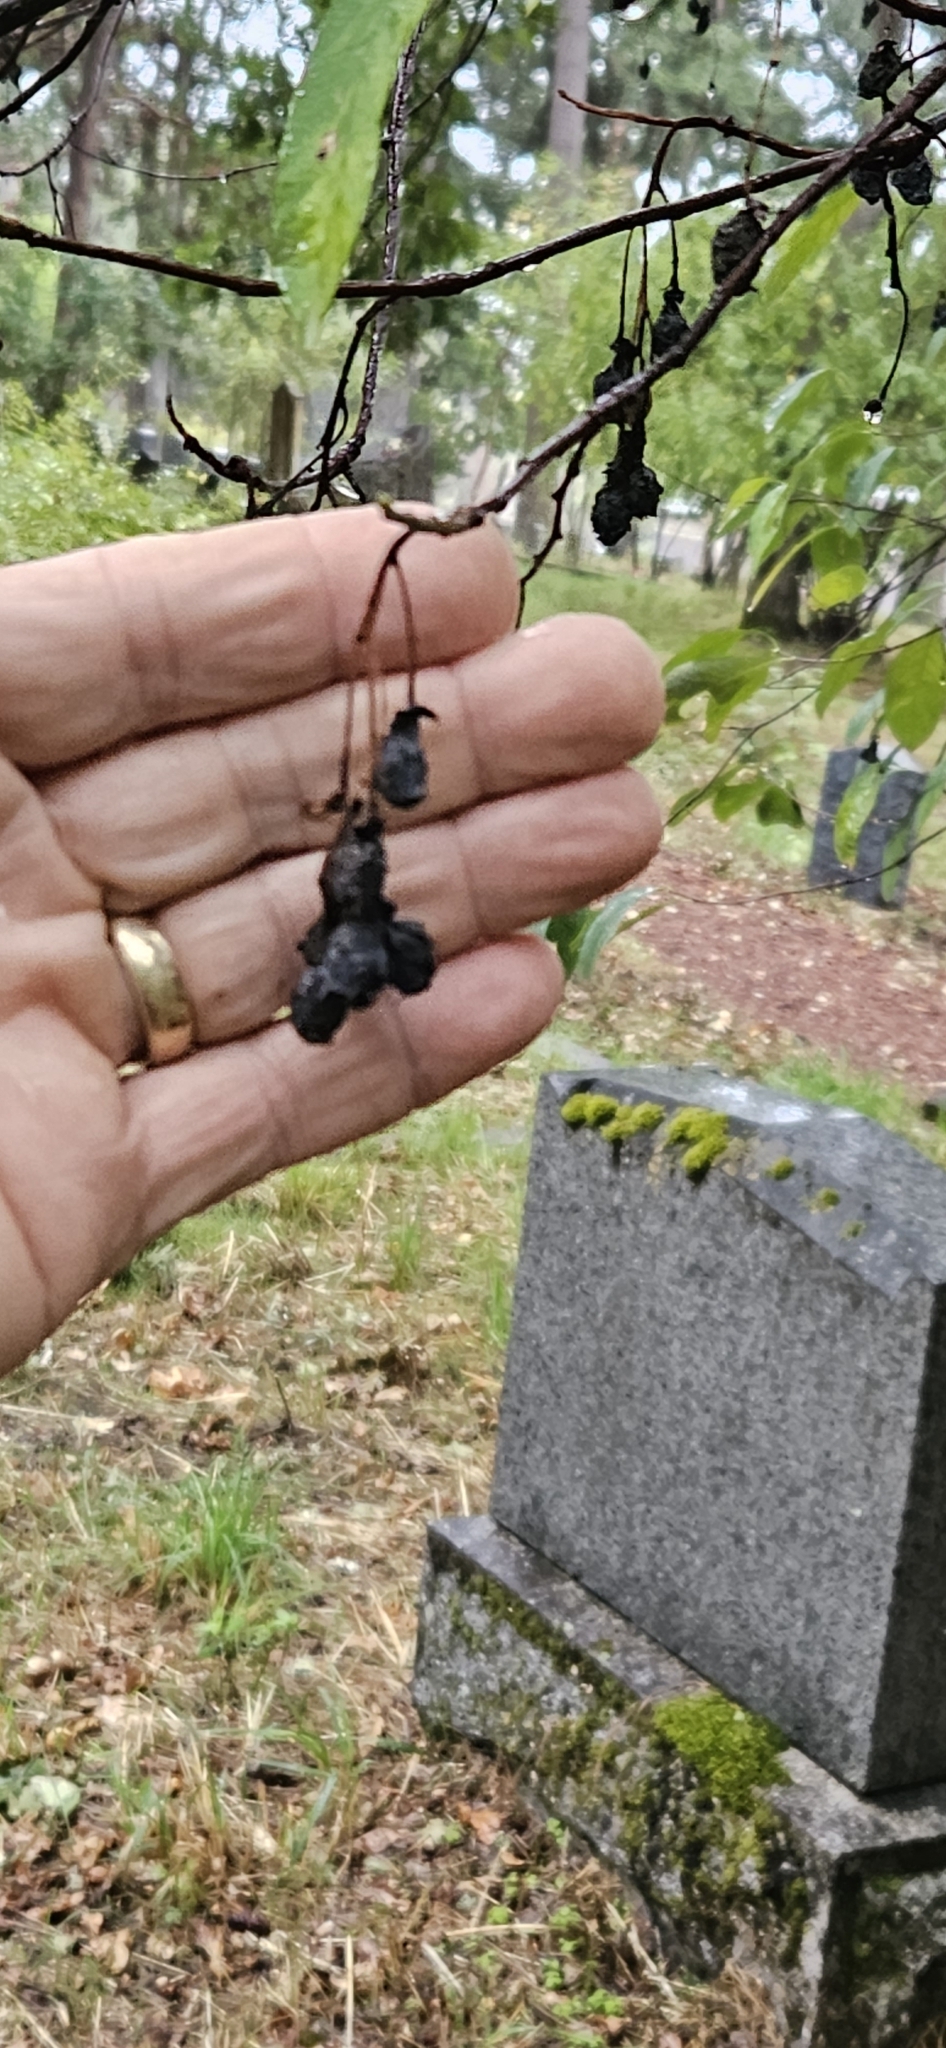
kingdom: Plantae
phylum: Tracheophyta
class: Magnoliopsida
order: Rosales
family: Rosaceae
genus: Oemleria
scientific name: Oemleria cerasiformis
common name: Osoberry
